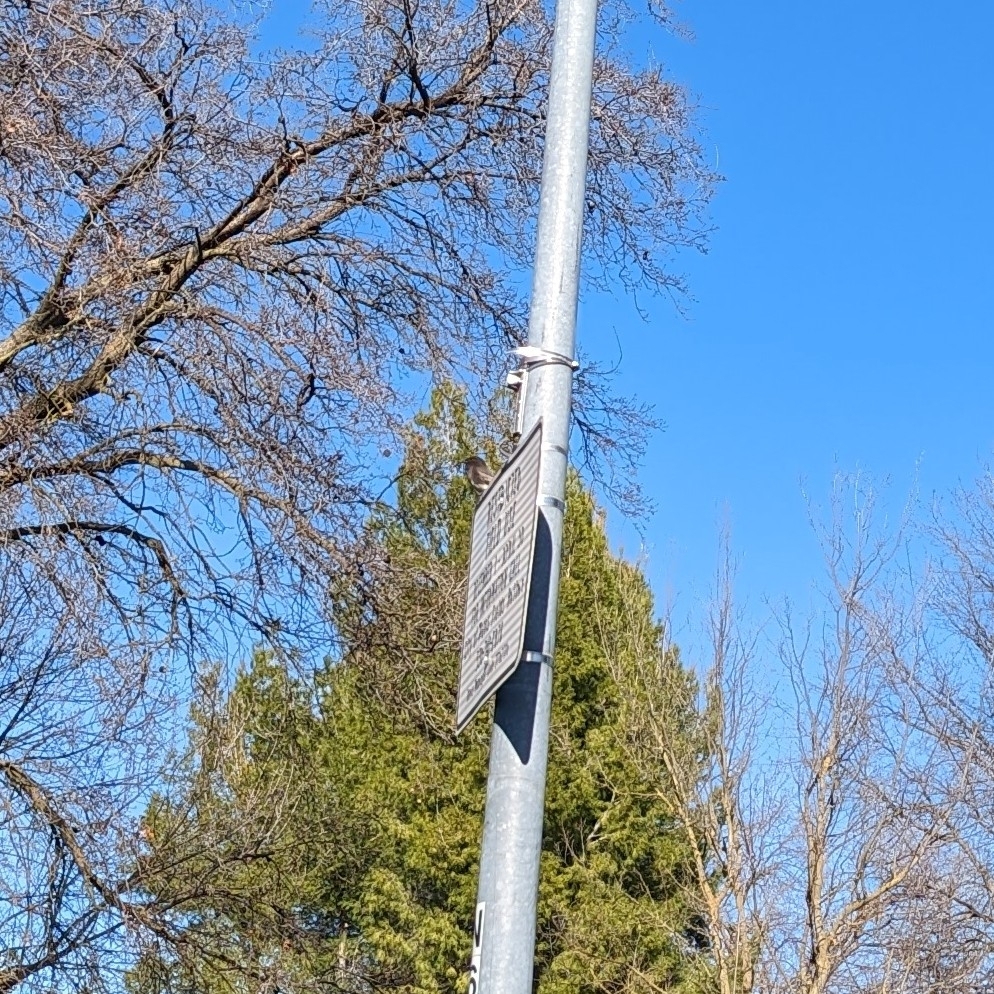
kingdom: Animalia
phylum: Chordata
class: Aves
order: Passeriformes
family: Tyrannidae
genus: Sayornis
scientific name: Sayornis nigricans
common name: Black phoebe
